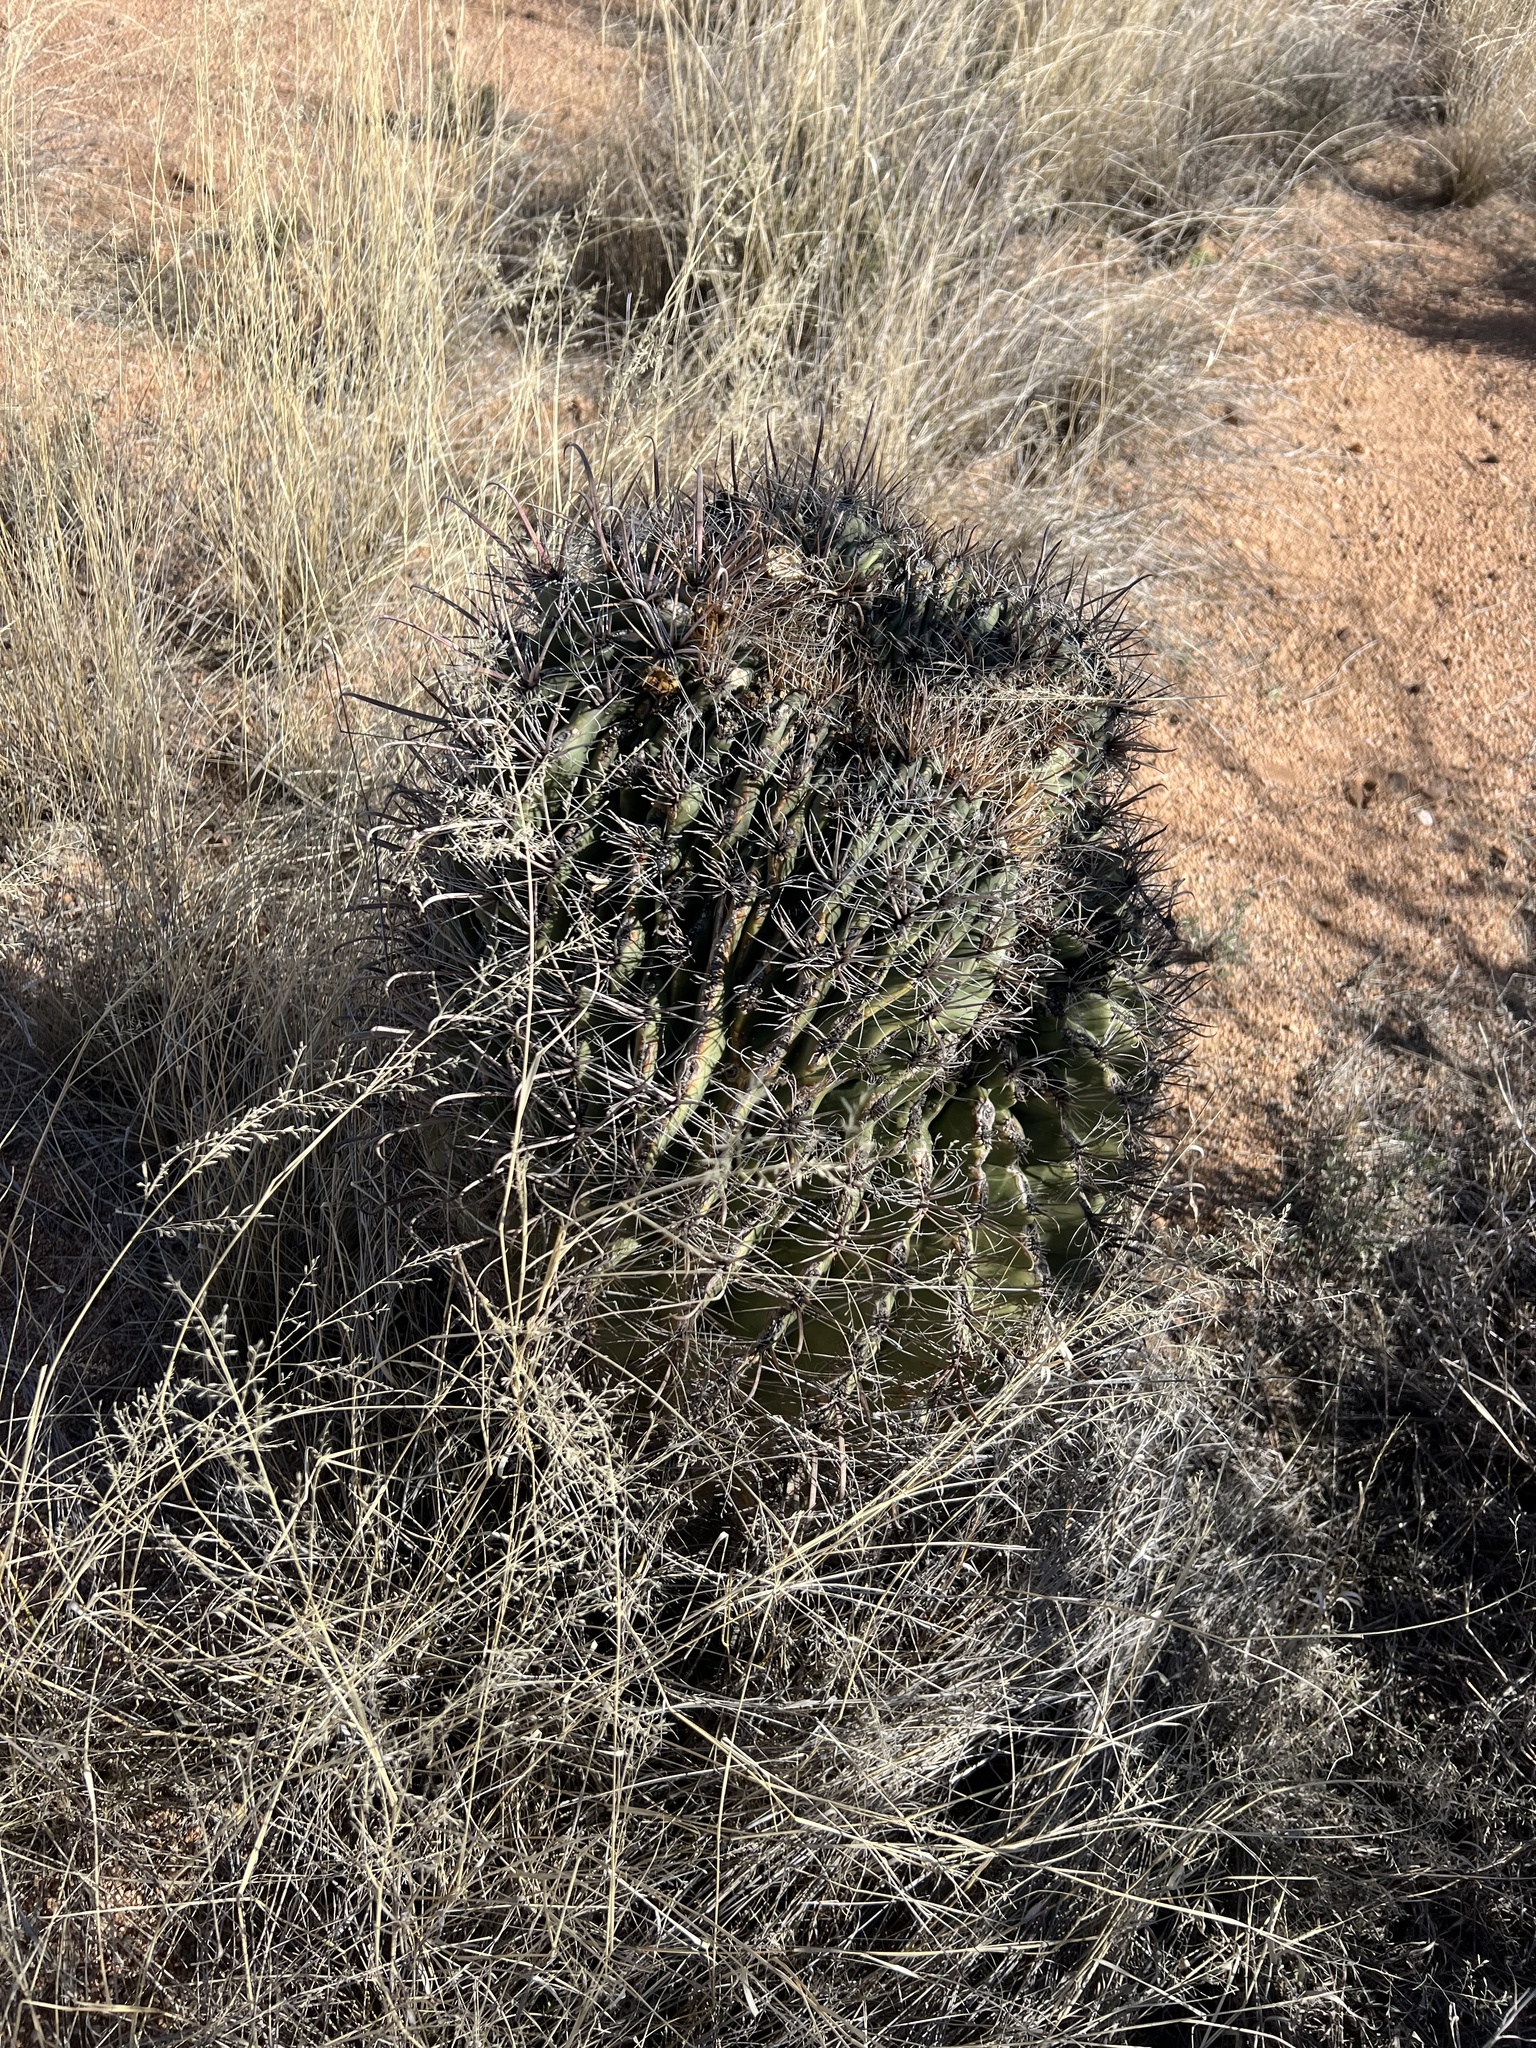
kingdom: Plantae
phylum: Tracheophyta
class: Magnoliopsida
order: Caryophyllales
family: Cactaceae
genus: Ferocactus
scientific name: Ferocactus wislizeni
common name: Candy barrel cactus
